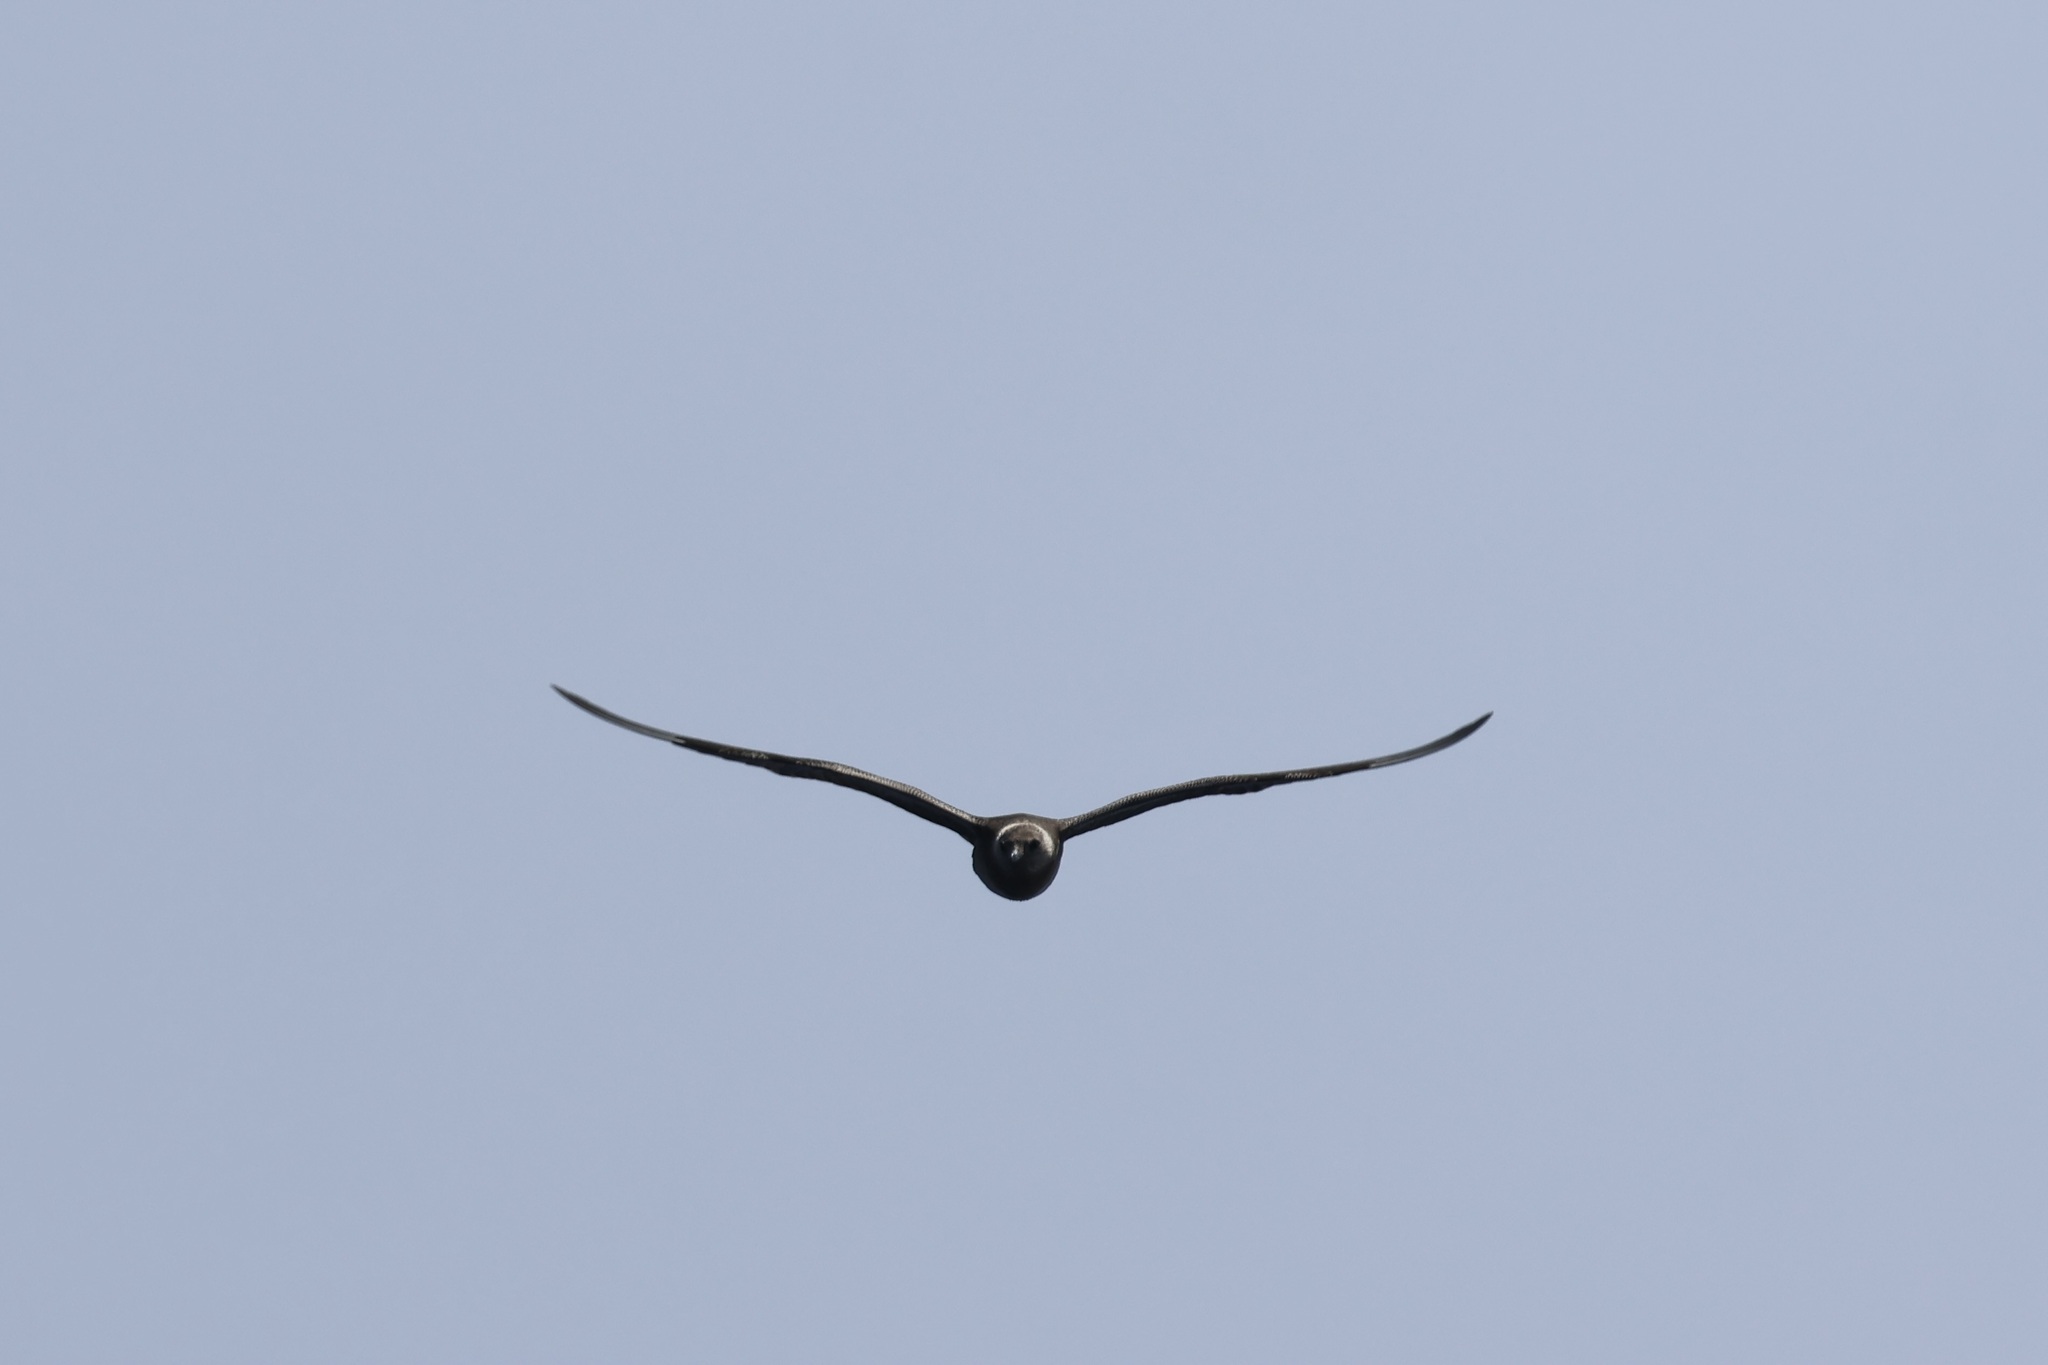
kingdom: Animalia
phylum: Chordata
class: Aves
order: Charadriiformes
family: Stercorariidae
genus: Stercorarius
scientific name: Stercorarius longicaudus
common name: Long-tailed jaeger
